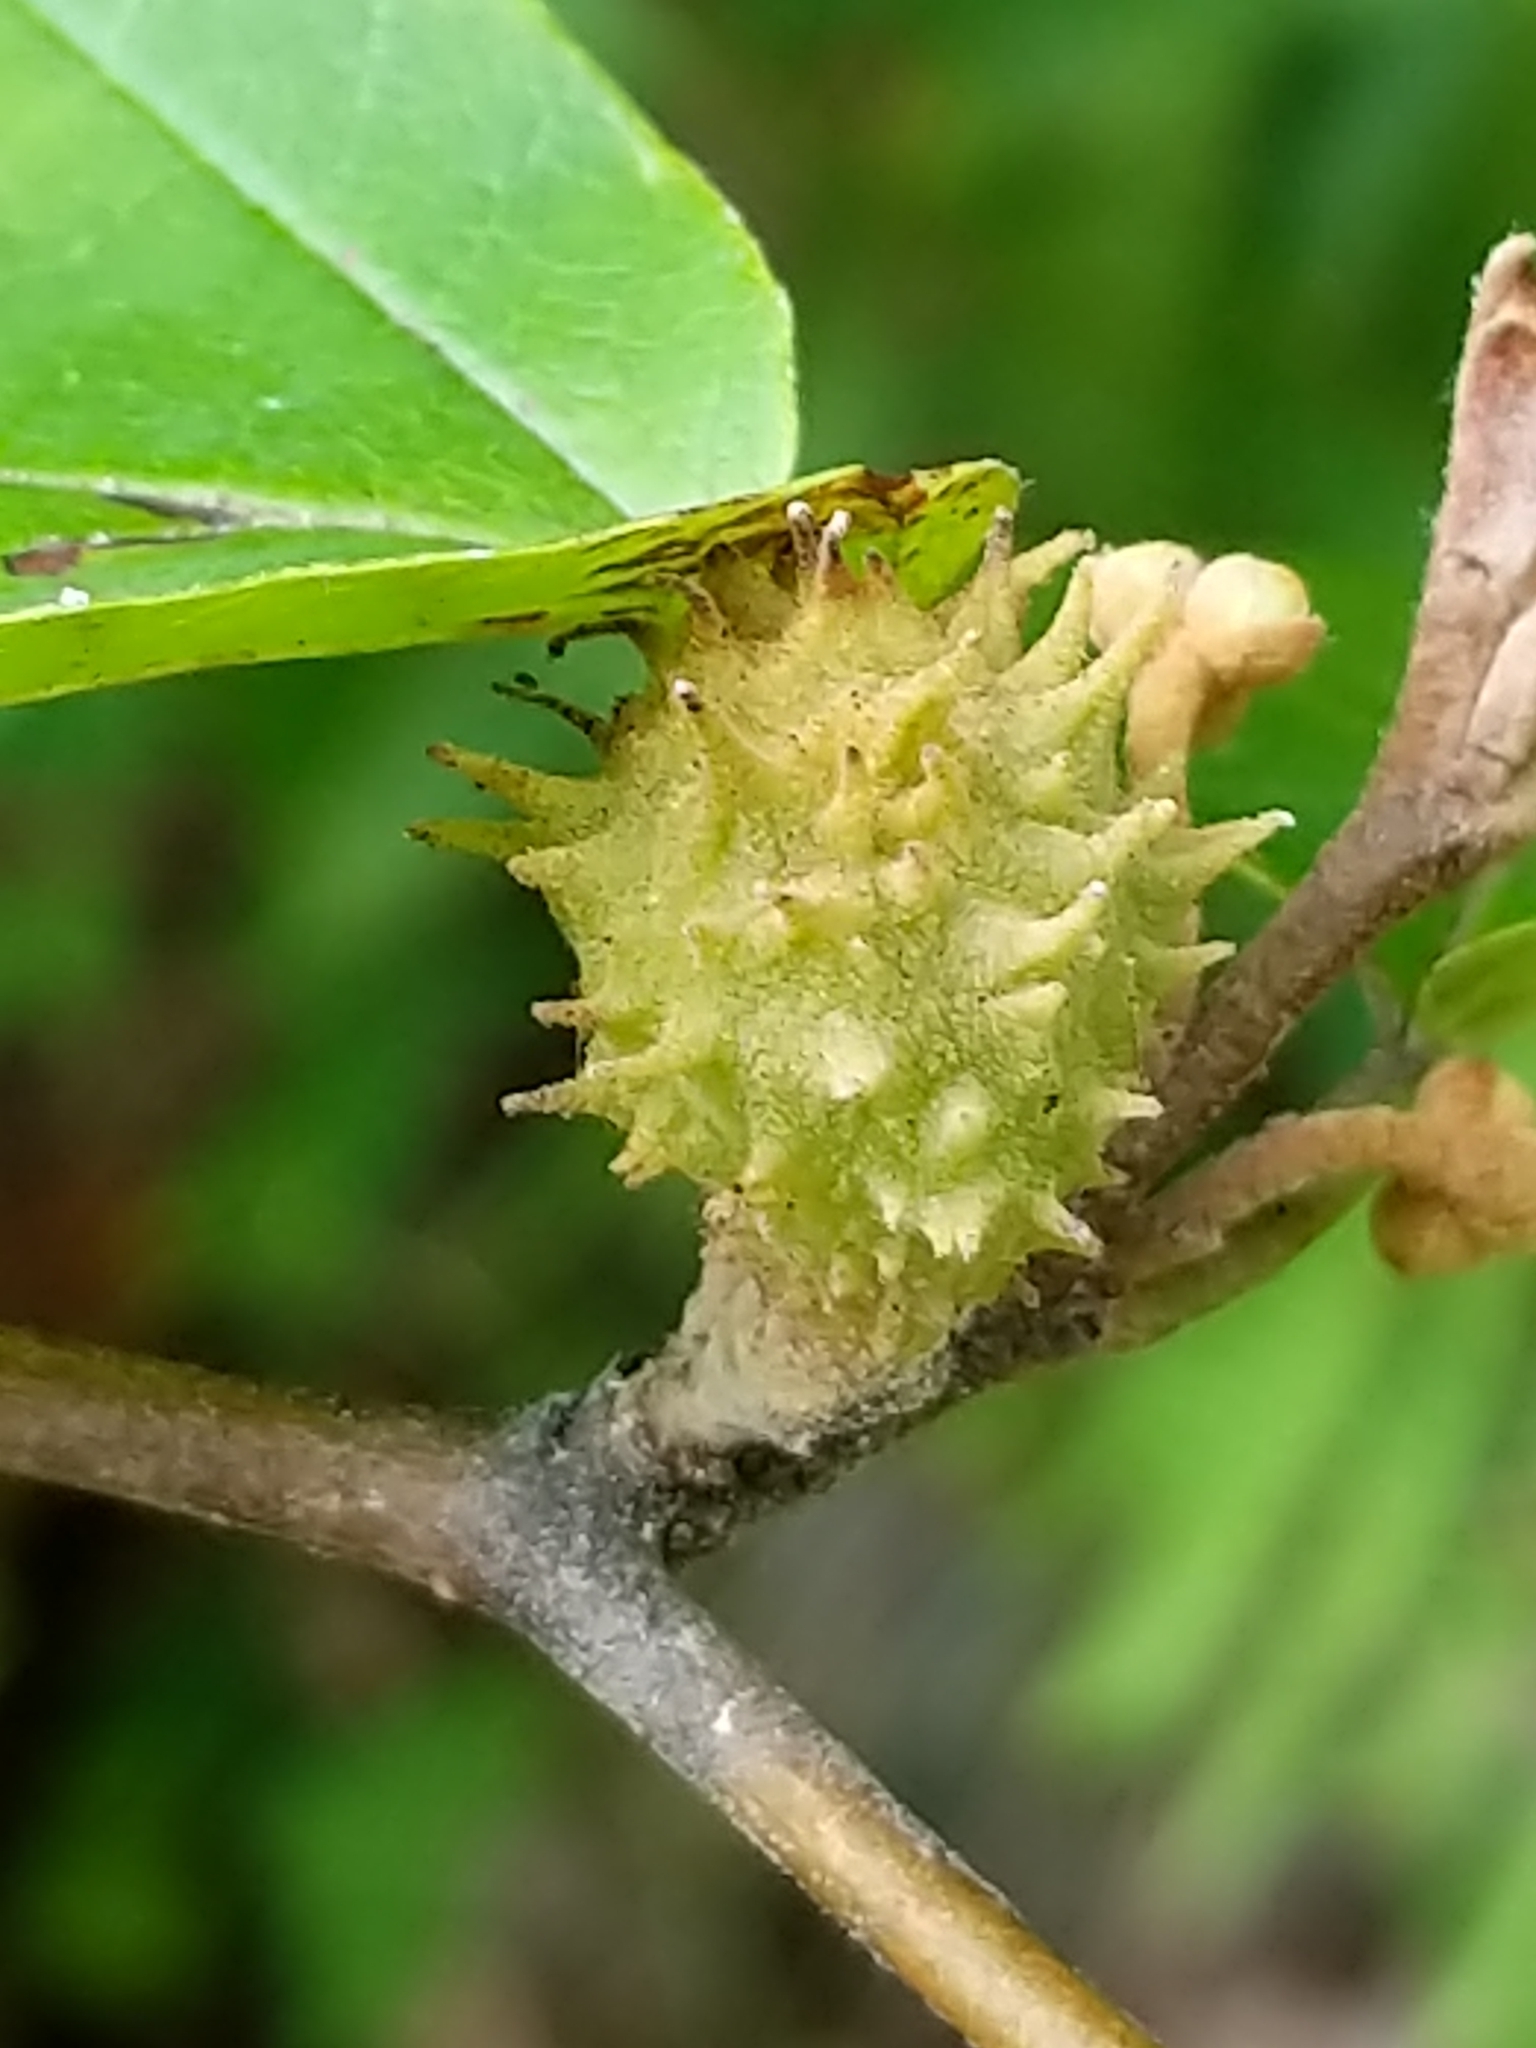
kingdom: Animalia
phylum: Arthropoda
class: Insecta
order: Hemiptera
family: Aphididae
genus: Hamamelistes
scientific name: Hamamelistes spinosus
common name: Witch hazel gall aphid
